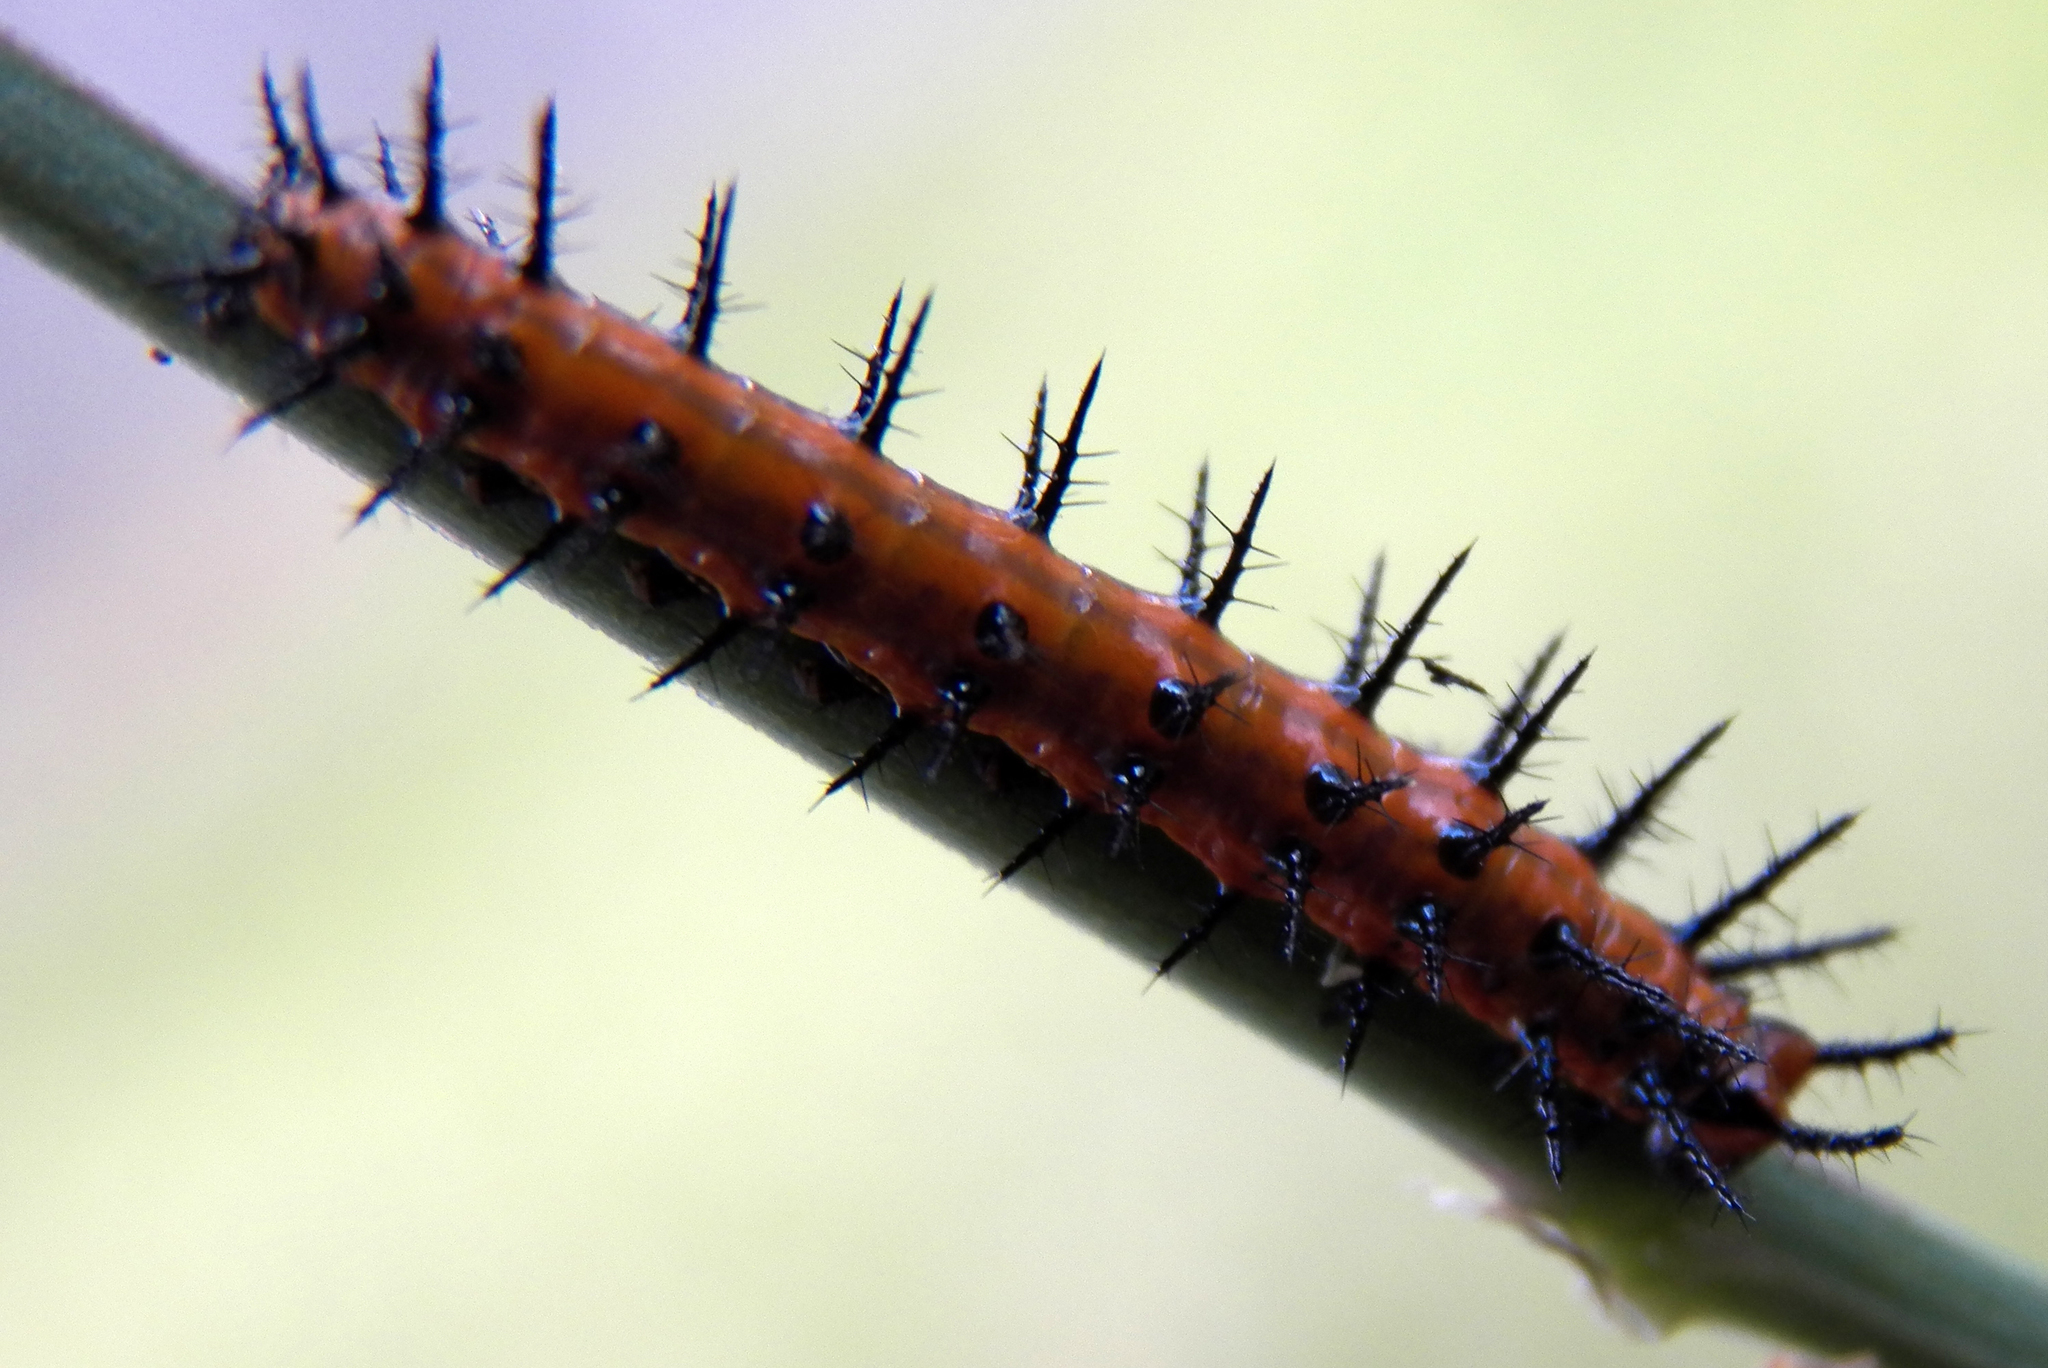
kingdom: Animalia
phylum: Arthropoda
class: Insecta
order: Lepidoptera
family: Nymphalidae
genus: Dione
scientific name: Dione vanillae
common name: Gulf fritillary
